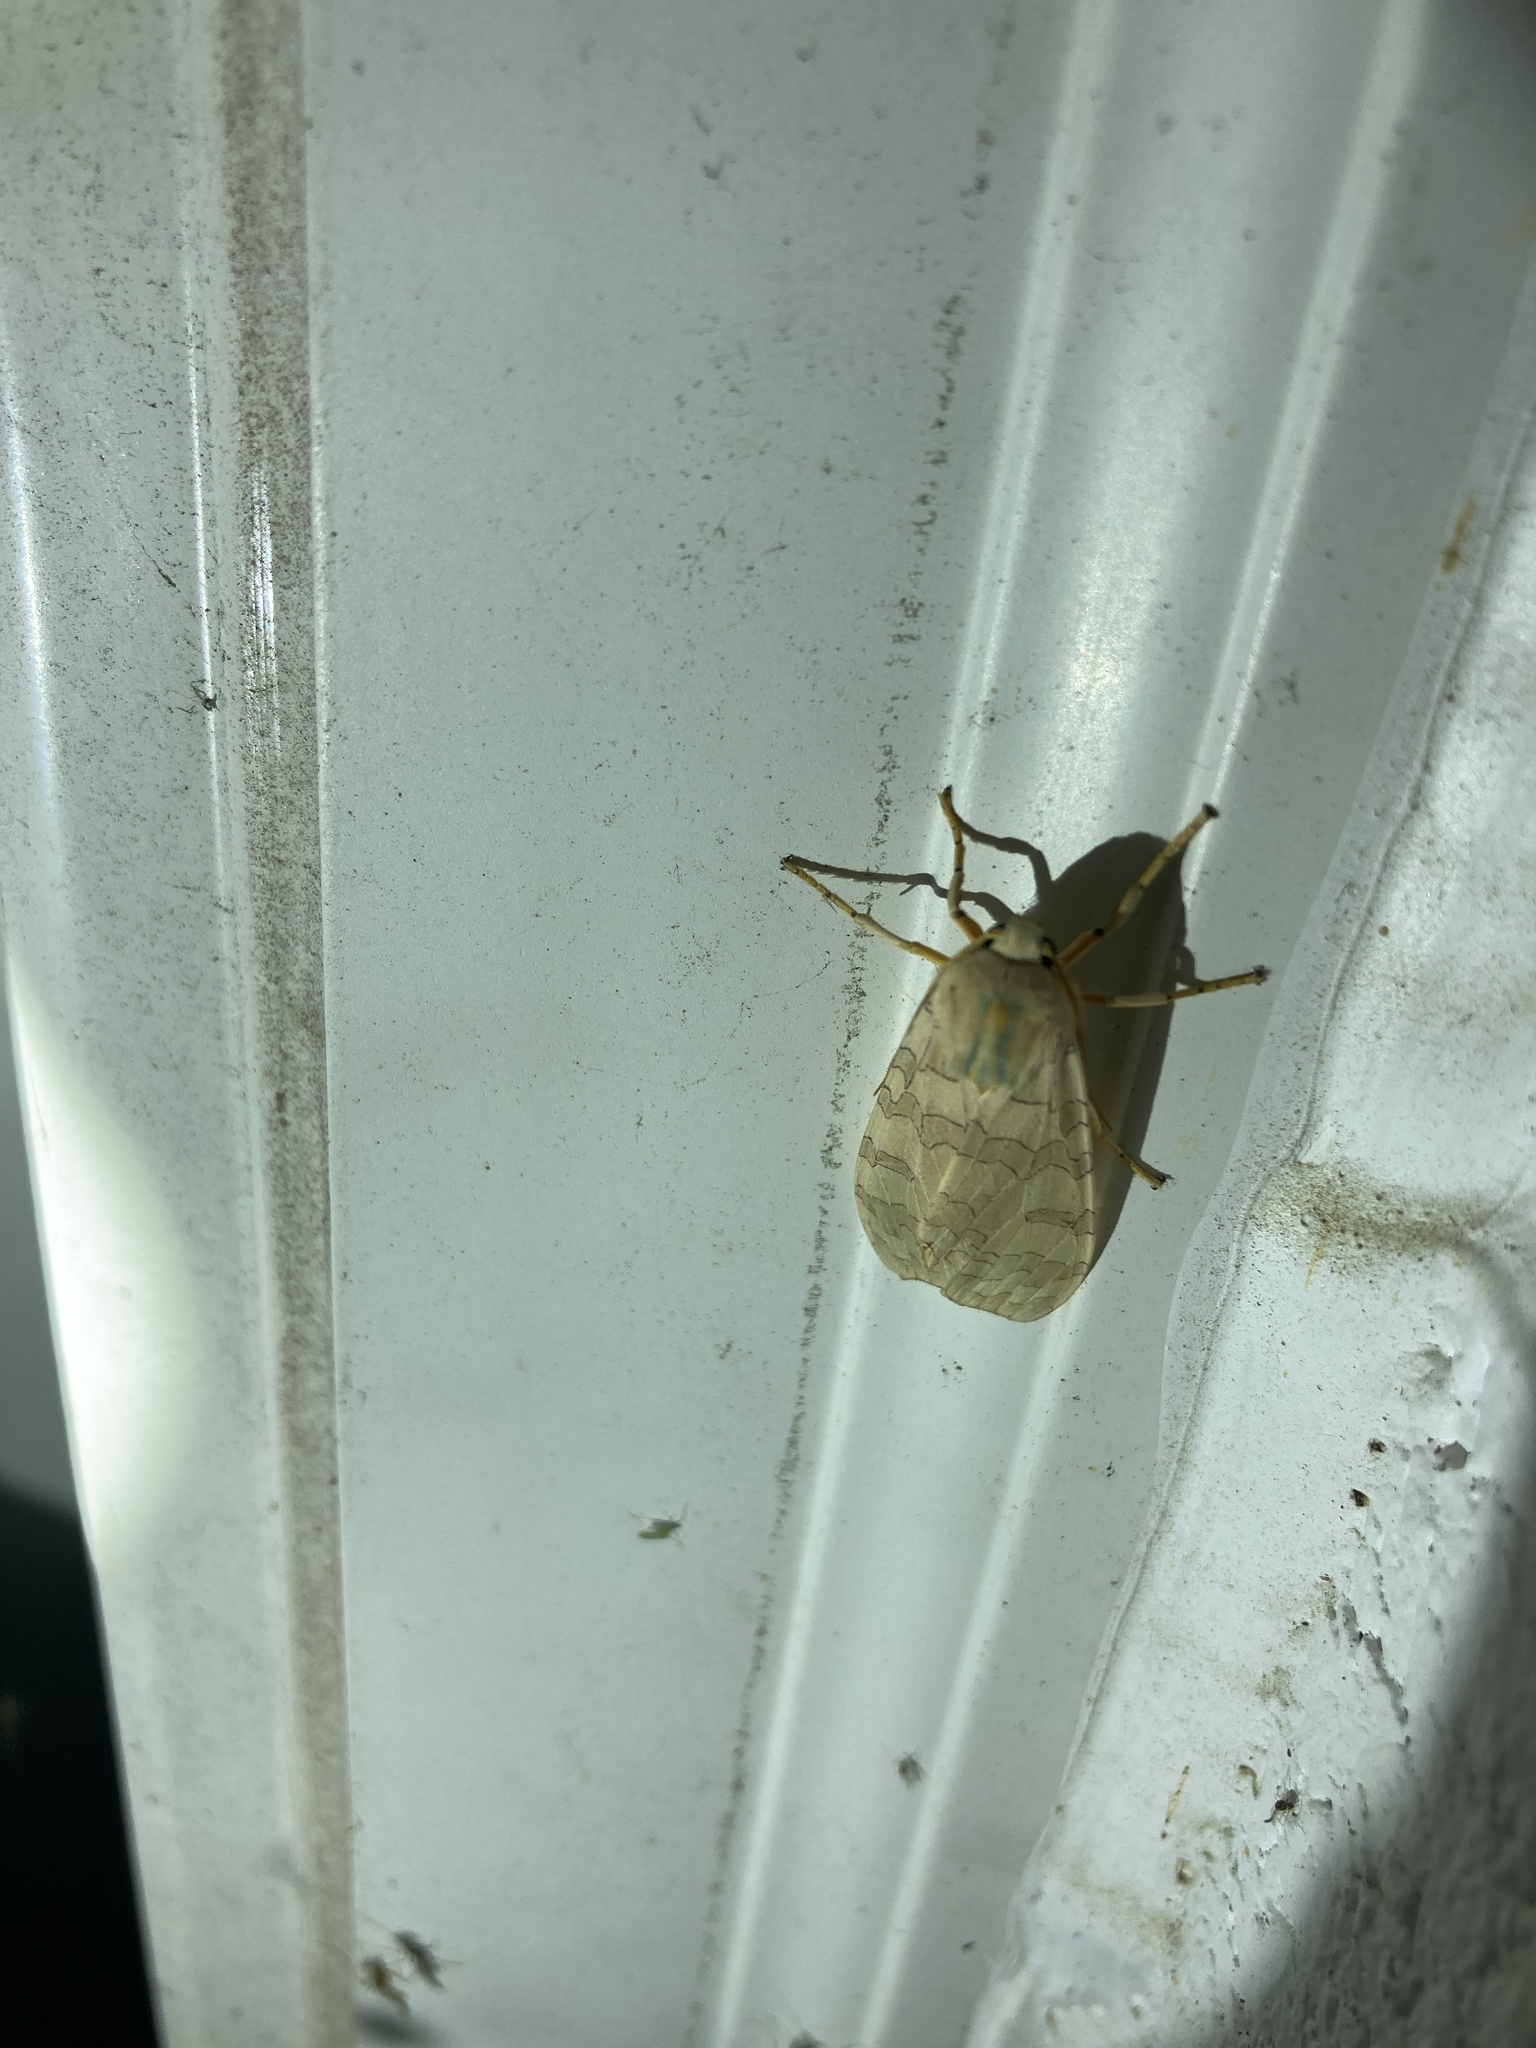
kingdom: Animalia
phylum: Arthropoda
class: Insecta
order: Lepidoptera
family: Erebidae
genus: Halysidota
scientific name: Halysidota
